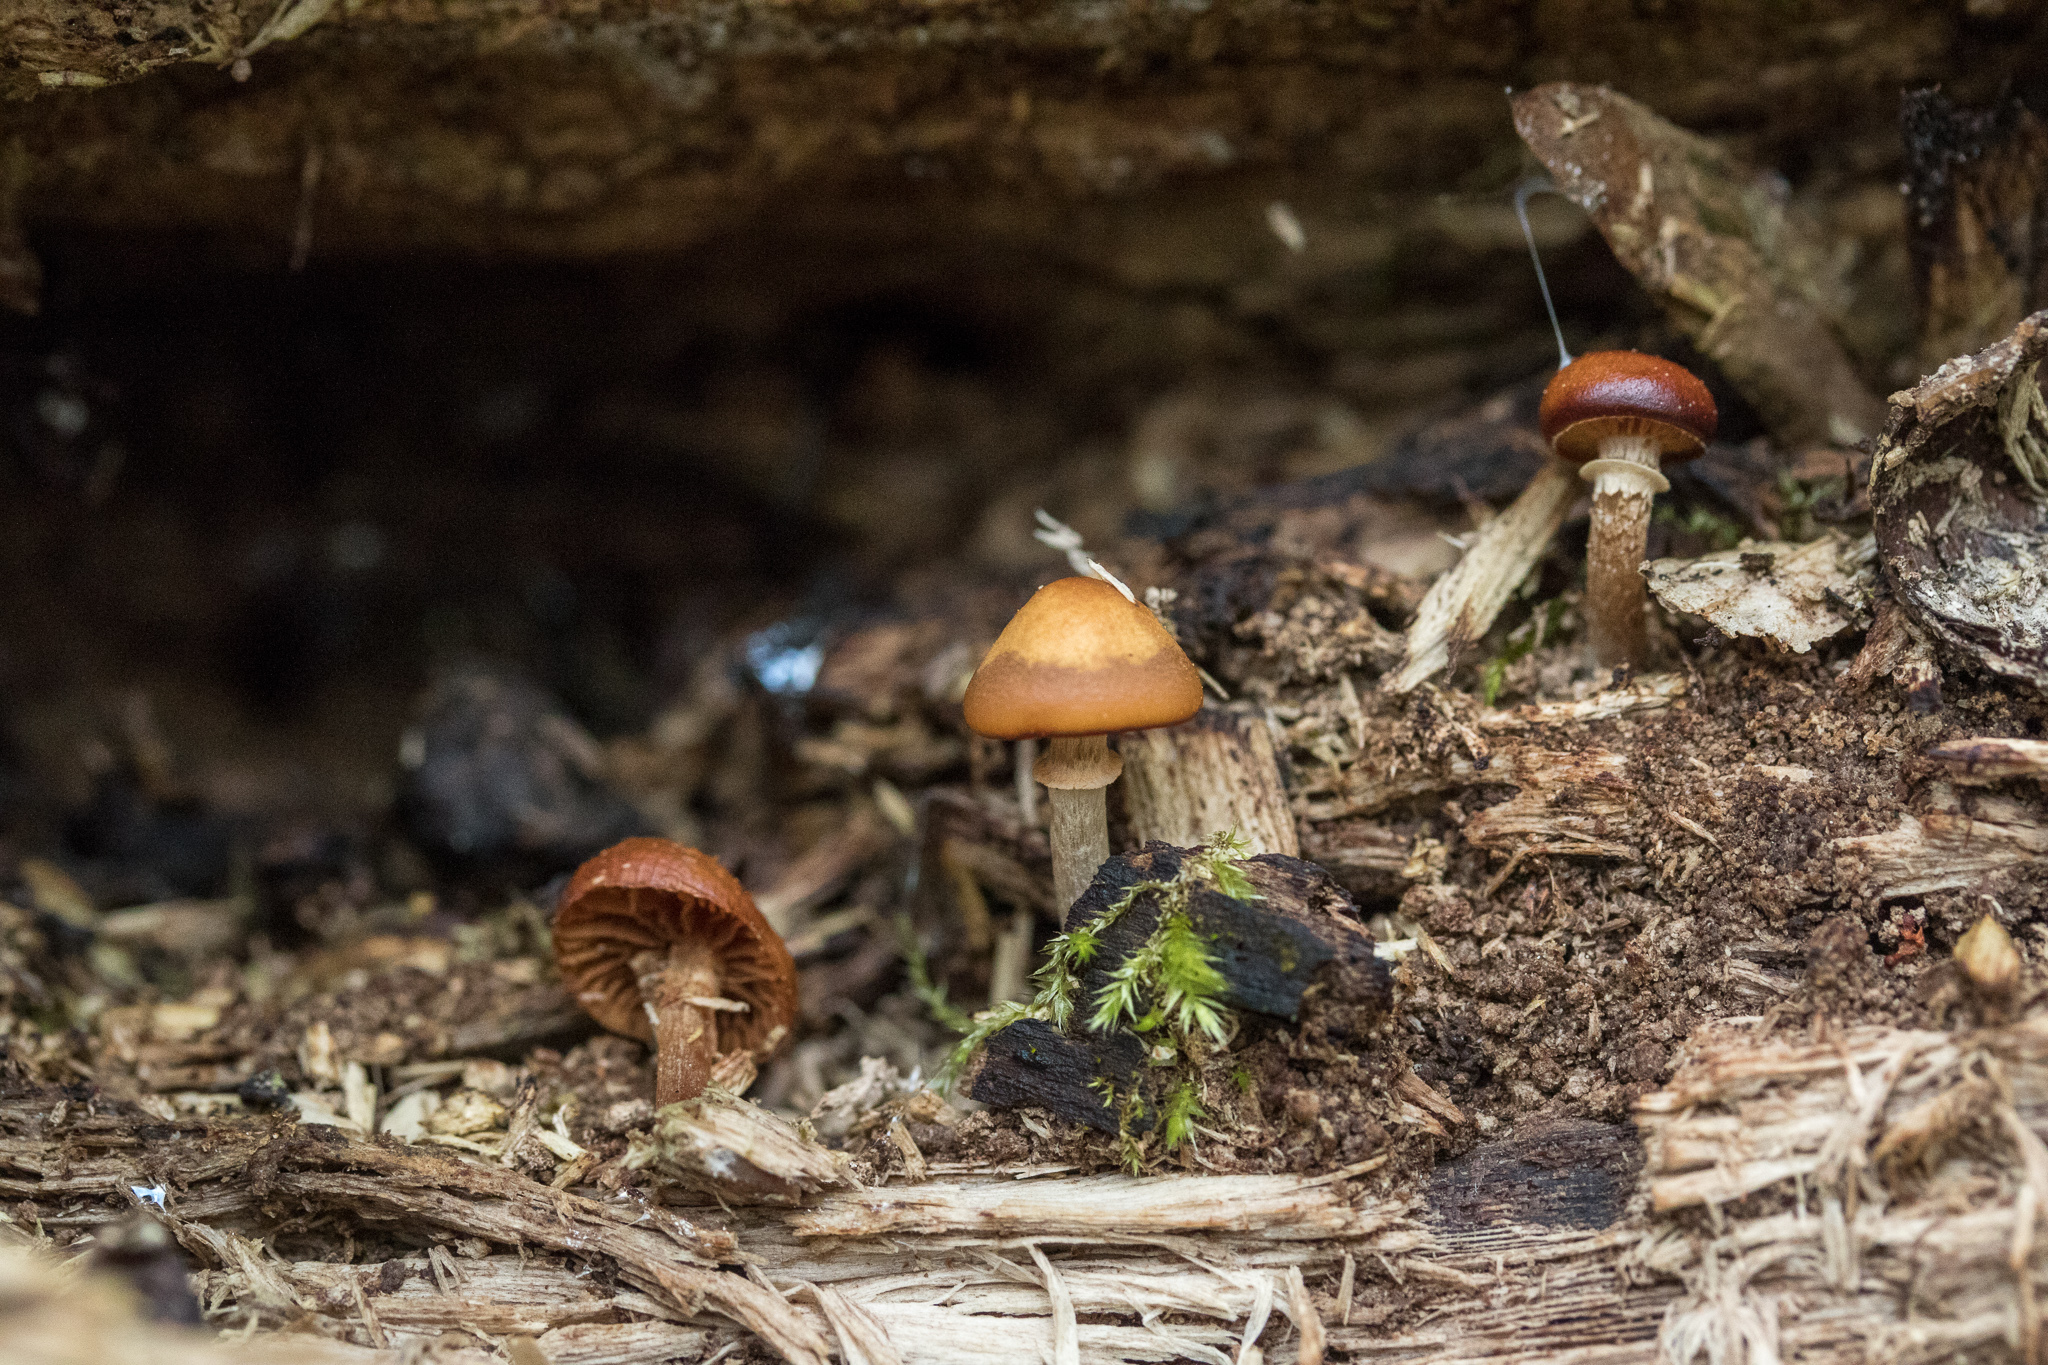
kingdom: Fungi
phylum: Basidiomycota
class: Agaricomycetes
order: Agaricales
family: Hymenogastraceae
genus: Galerina
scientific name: Galerina marginata
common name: Funeral bell
